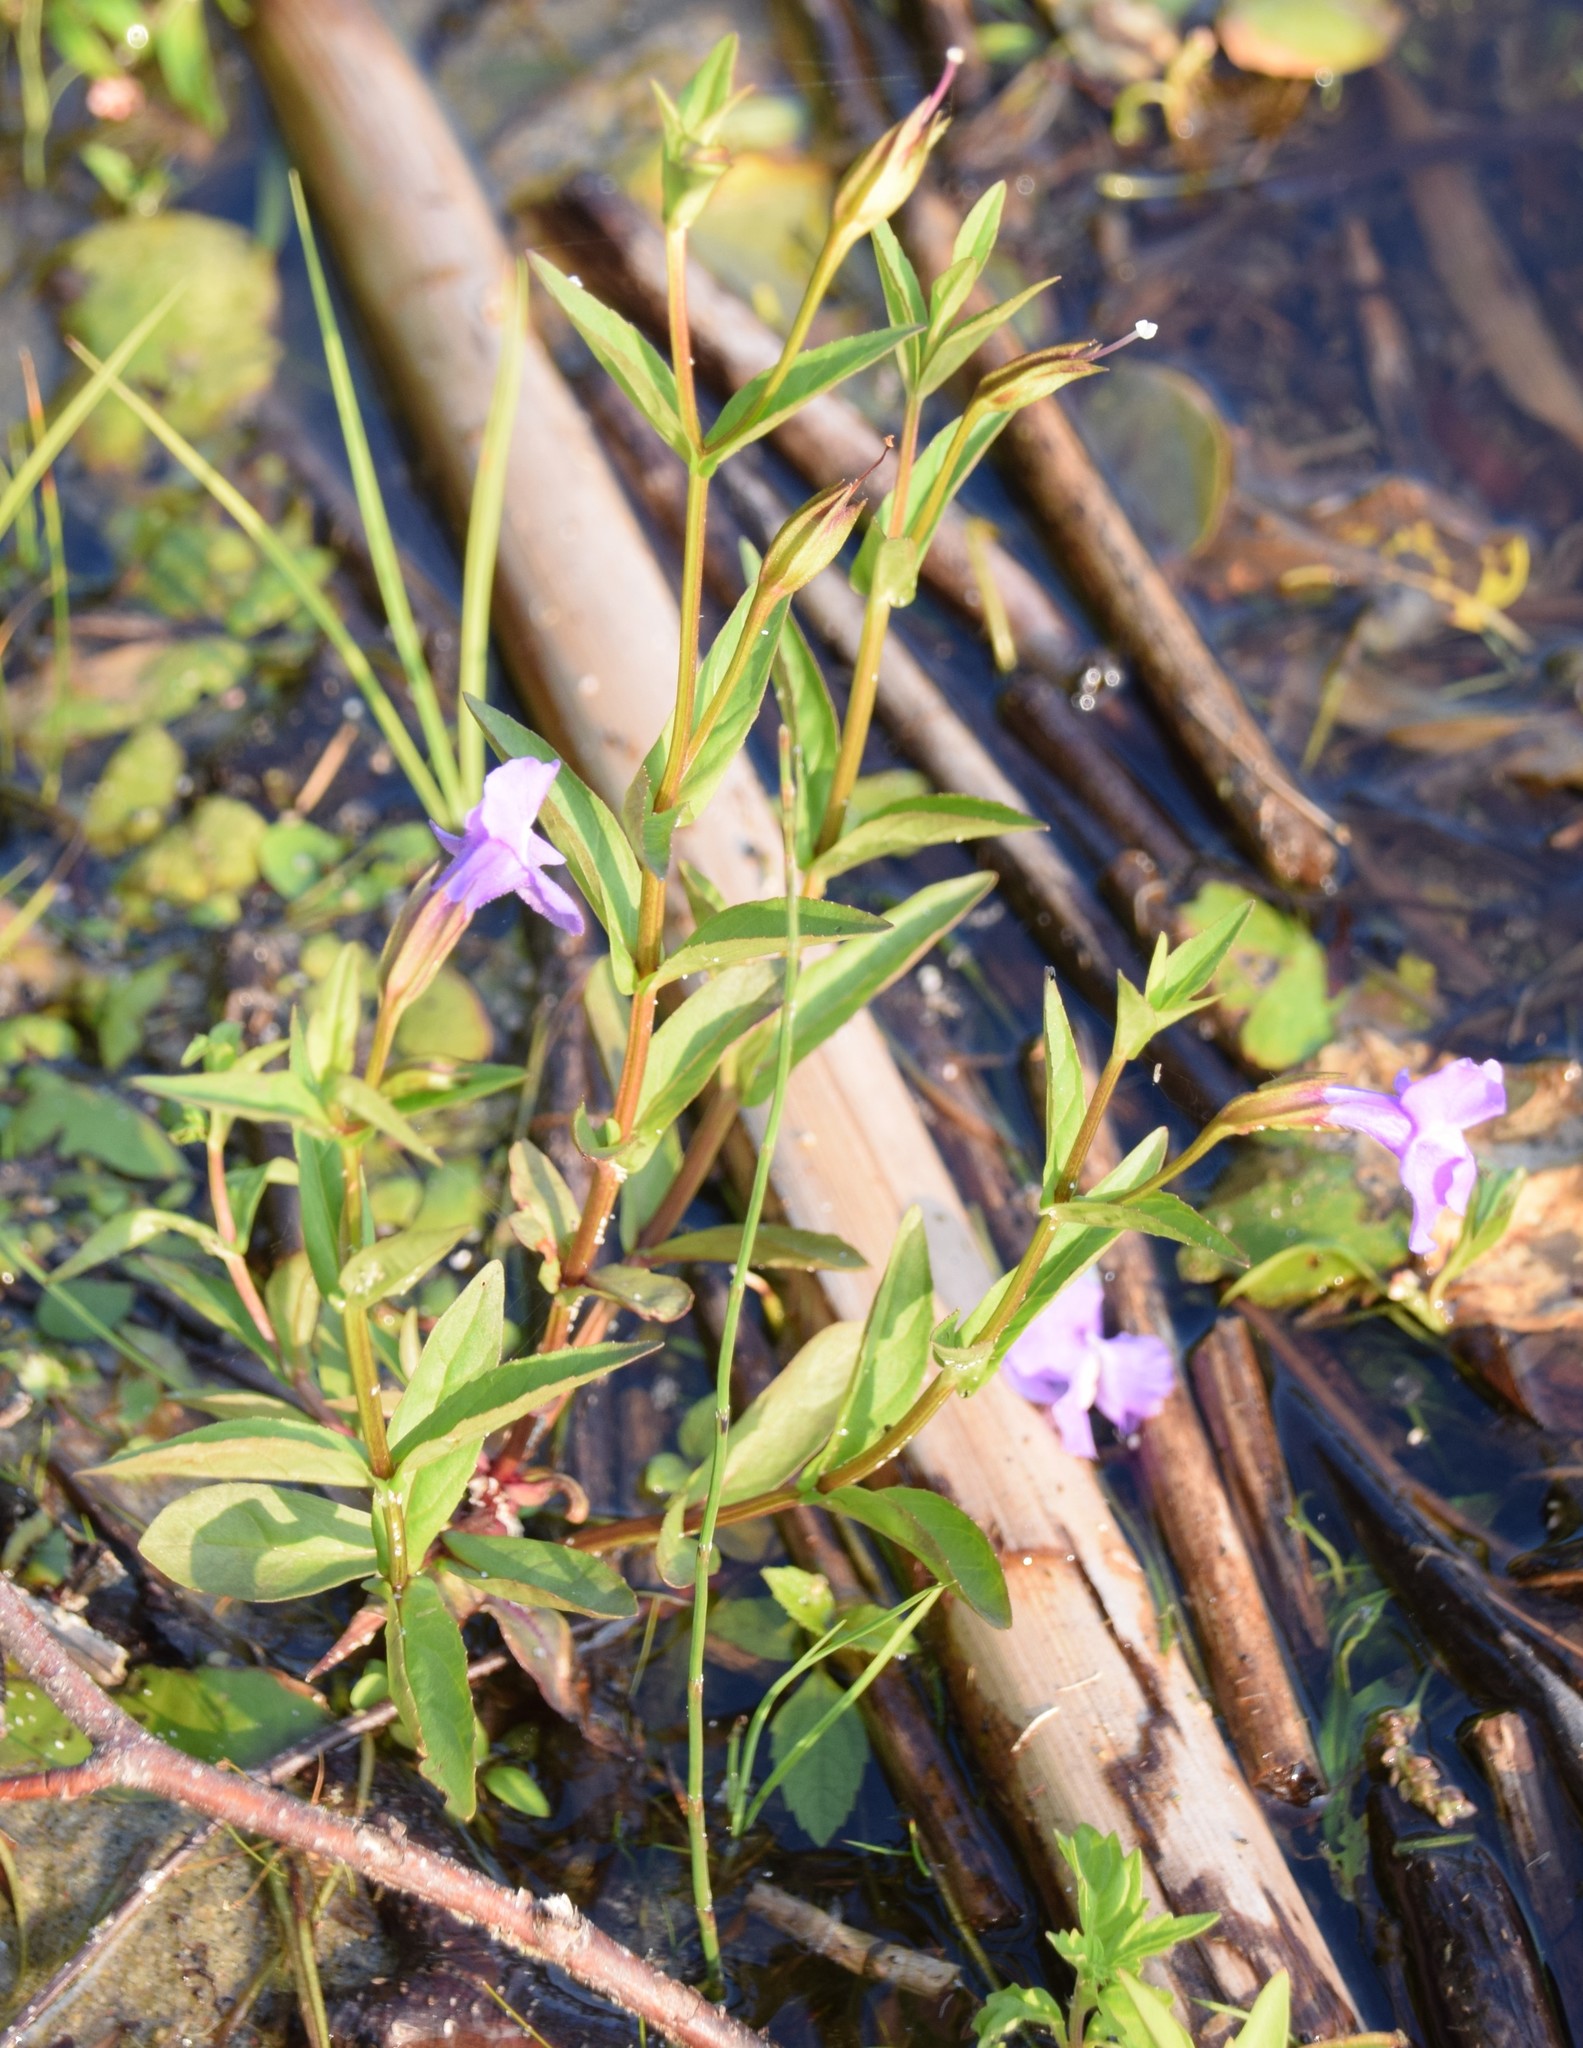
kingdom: Plantae
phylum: Tracheophyta
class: Magnoliopsida
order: Lamiales
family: Phrymaceae
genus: Mimulus
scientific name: Mimulus ringens
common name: Allegheny monkeyflower
